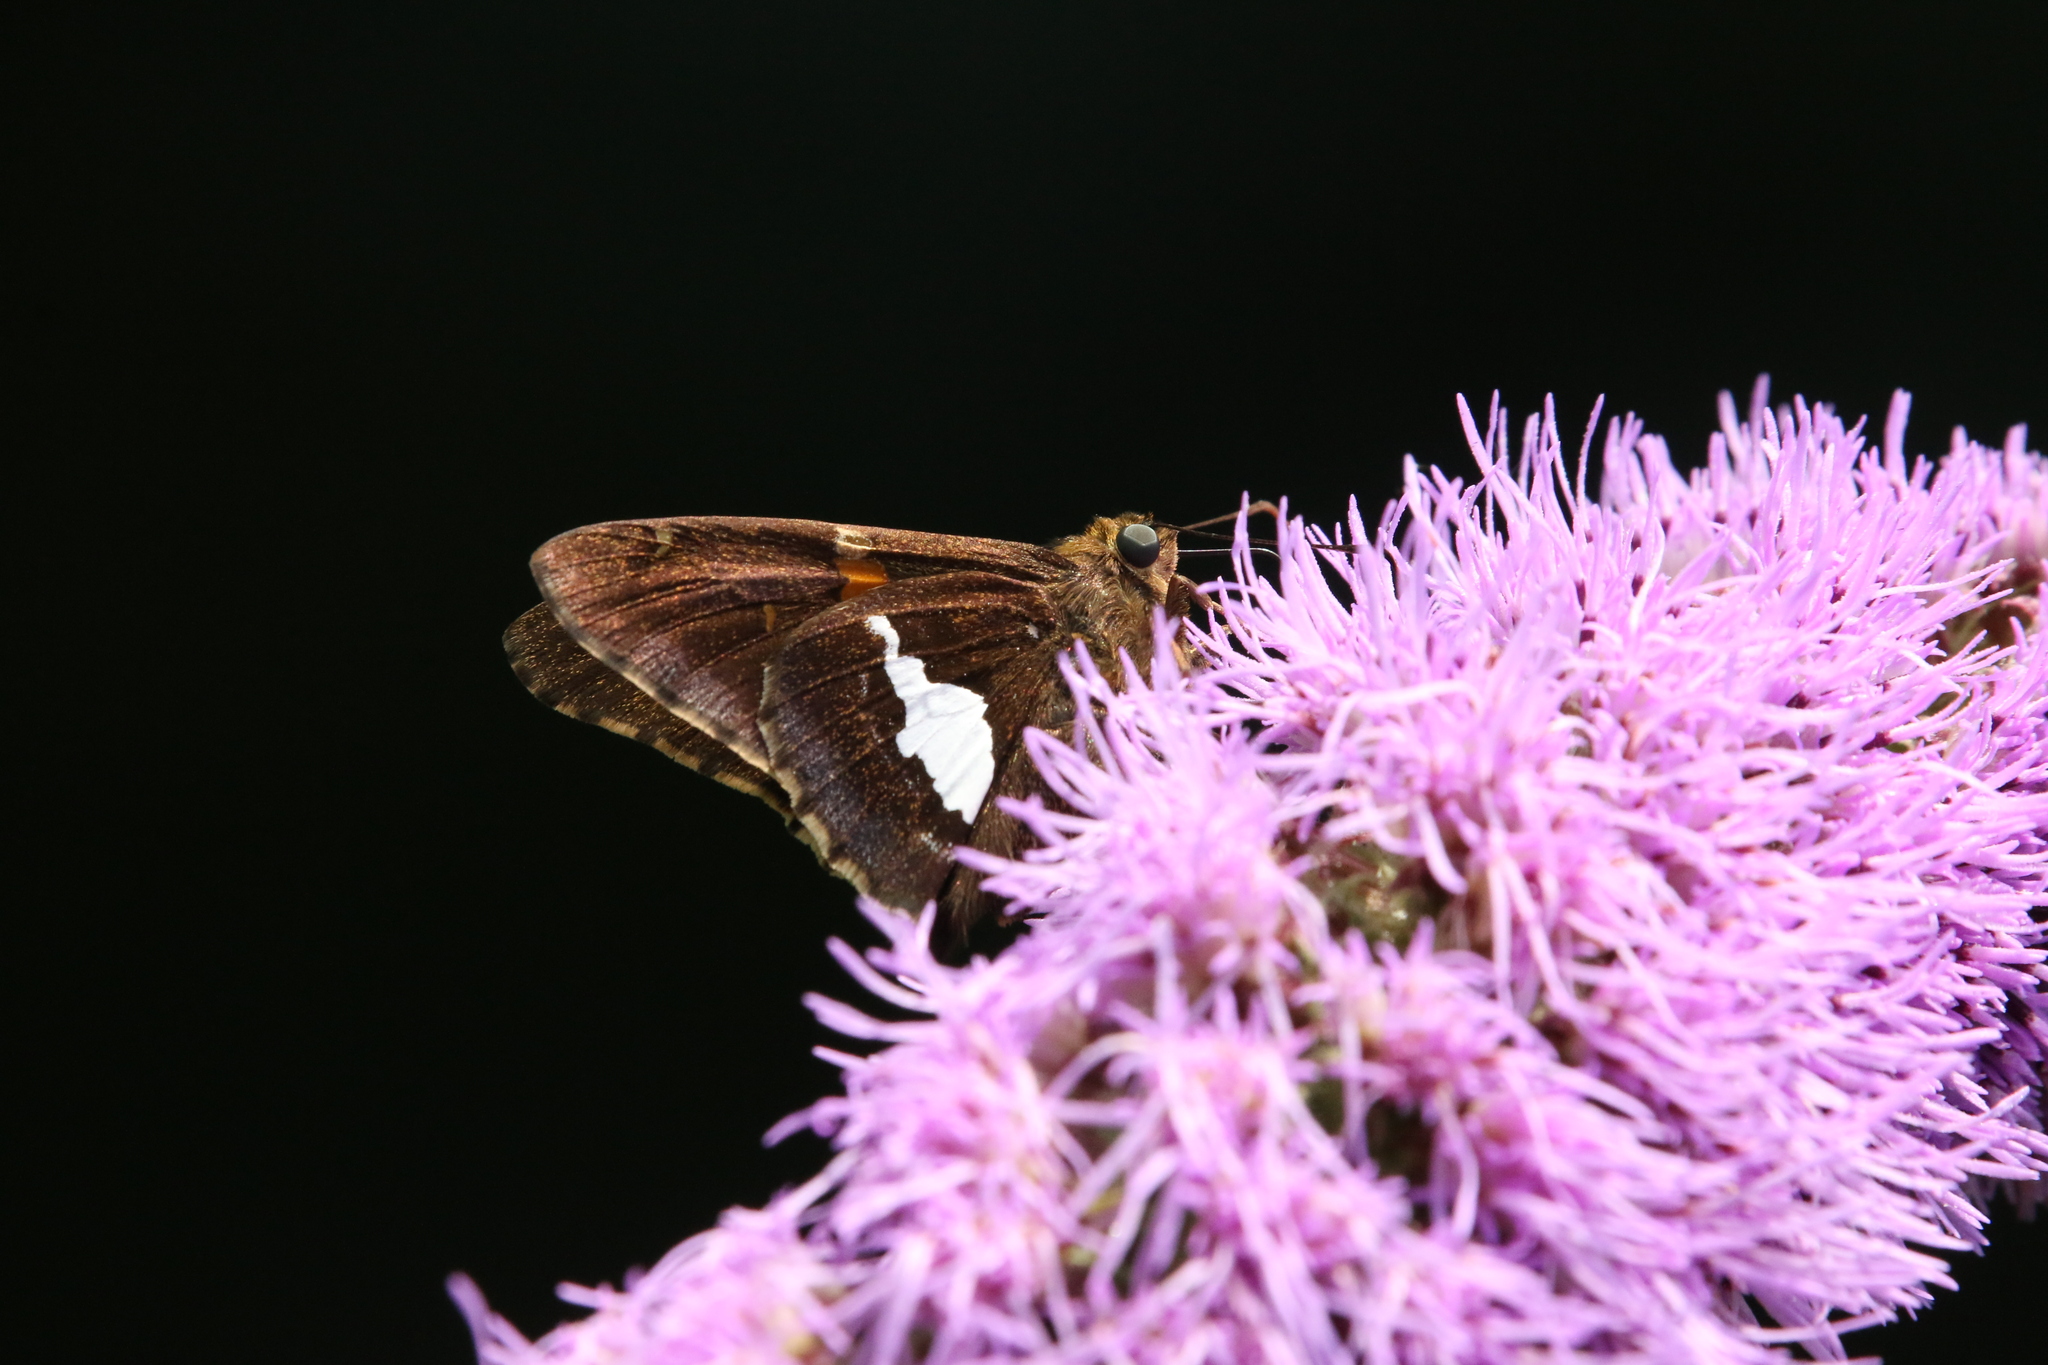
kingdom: Animalia
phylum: Arthropoda
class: Insecta
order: Lepidoptera
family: Hesperiidae
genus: Epargyreus
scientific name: Epargyreus clarus
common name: Silver-spotted skipper
